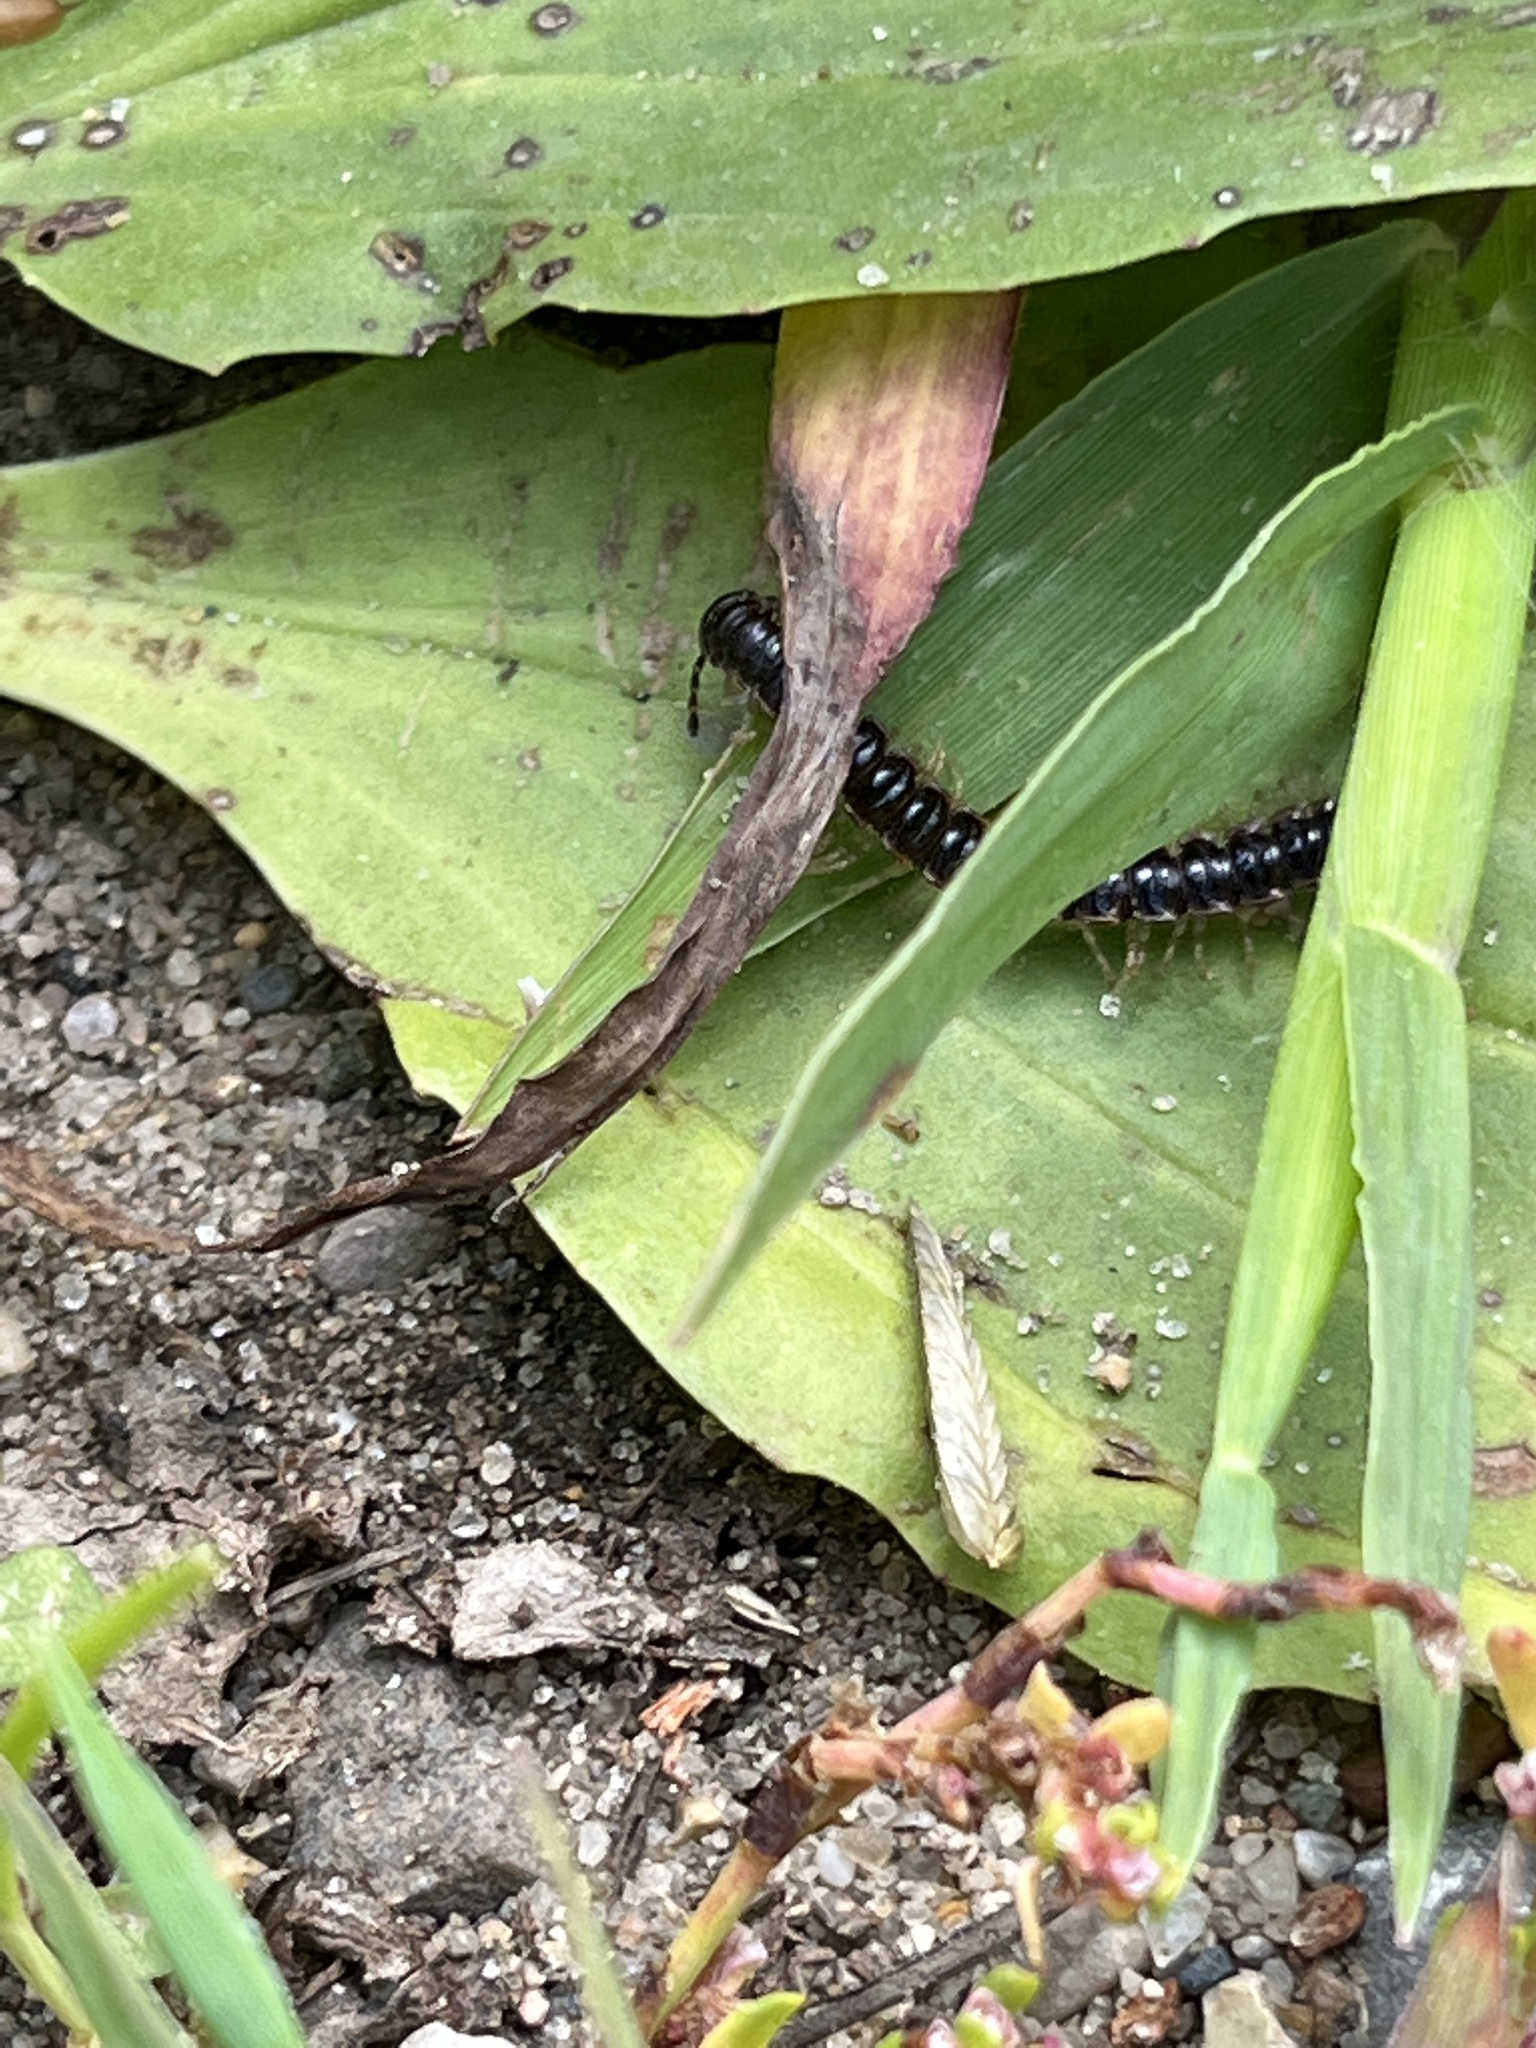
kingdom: Animalia
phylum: Arthropoda
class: Diplopoda
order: Polydesmida
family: Paradoxosomatidae
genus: Oxidus
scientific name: Oxidus gracilis
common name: Greenhouse millipede
